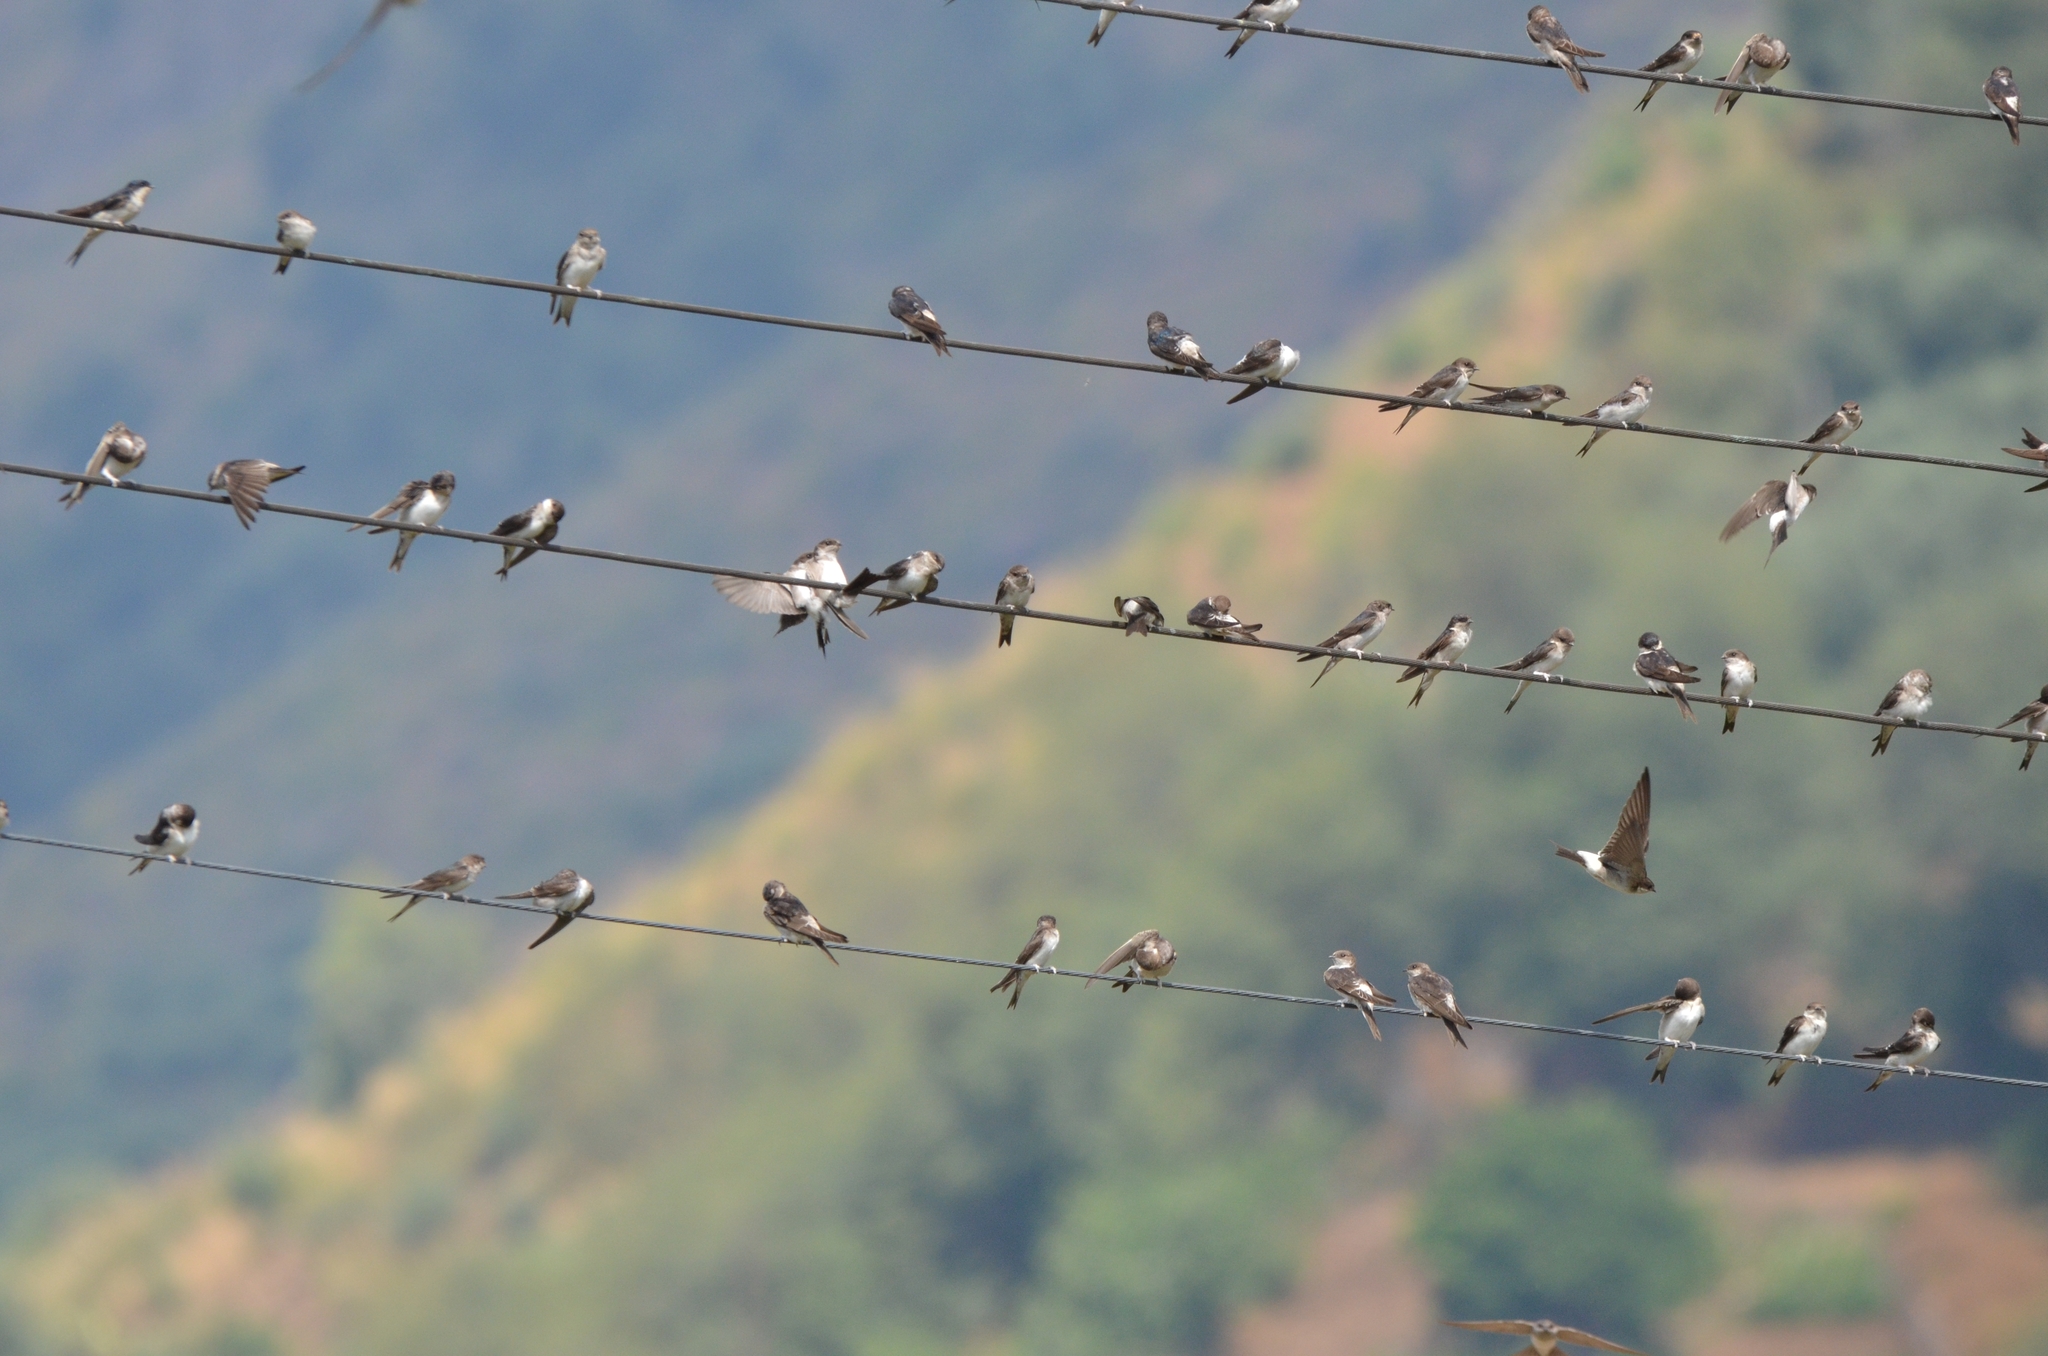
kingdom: Animalia
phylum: Chordata
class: Aves
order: Passeriformes
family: Hirundinidae
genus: Delichon
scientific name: Delichon urbicum
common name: Common house martin
